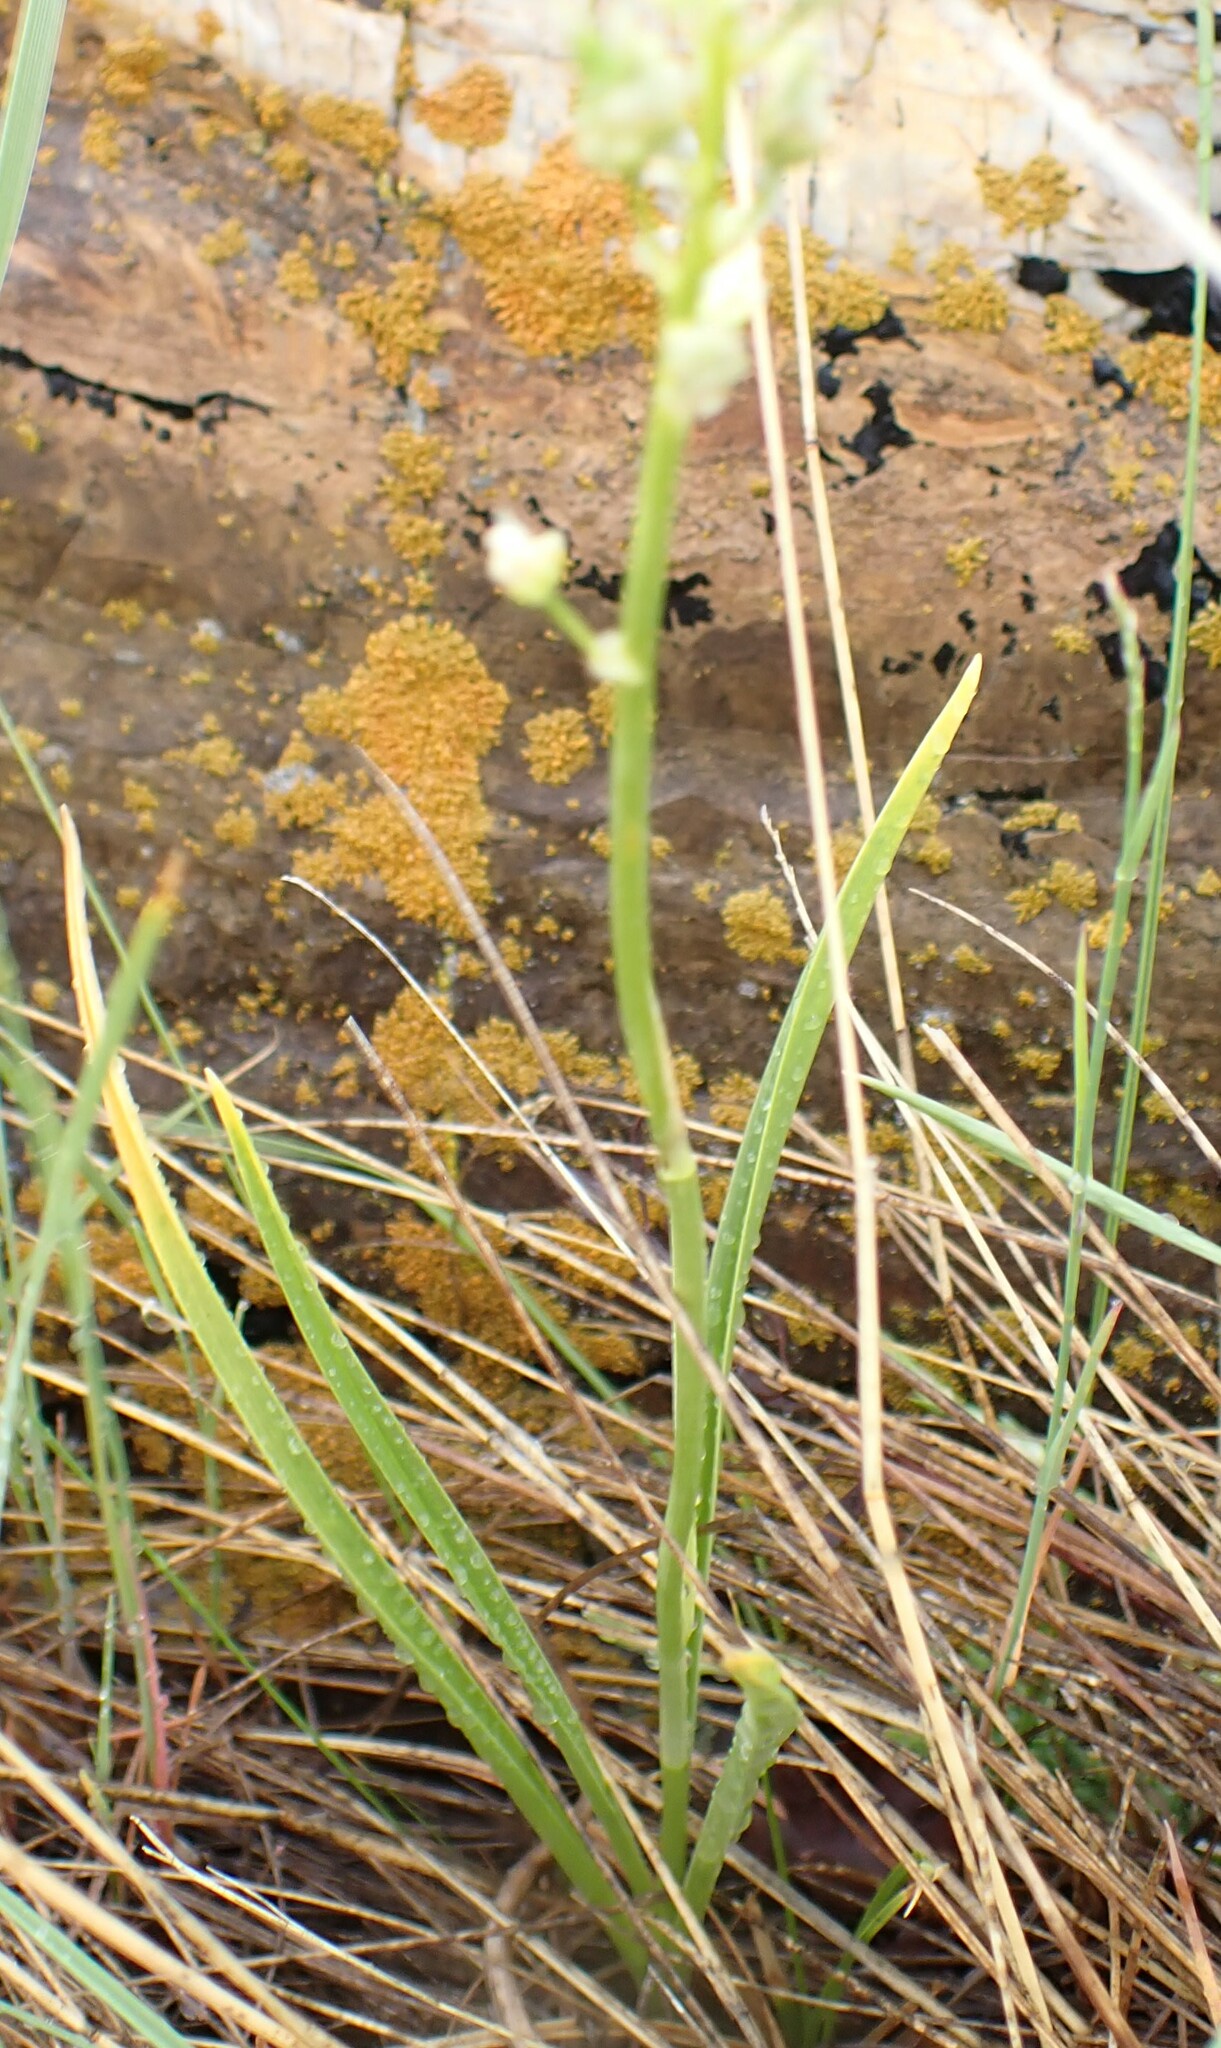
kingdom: Plantae
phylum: Tracheophyta
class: Liliopsida
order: Liliales
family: Melanthiaceae
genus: Toxicoscordion
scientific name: Toxicoscordion venenosum
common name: Meadow death camas
